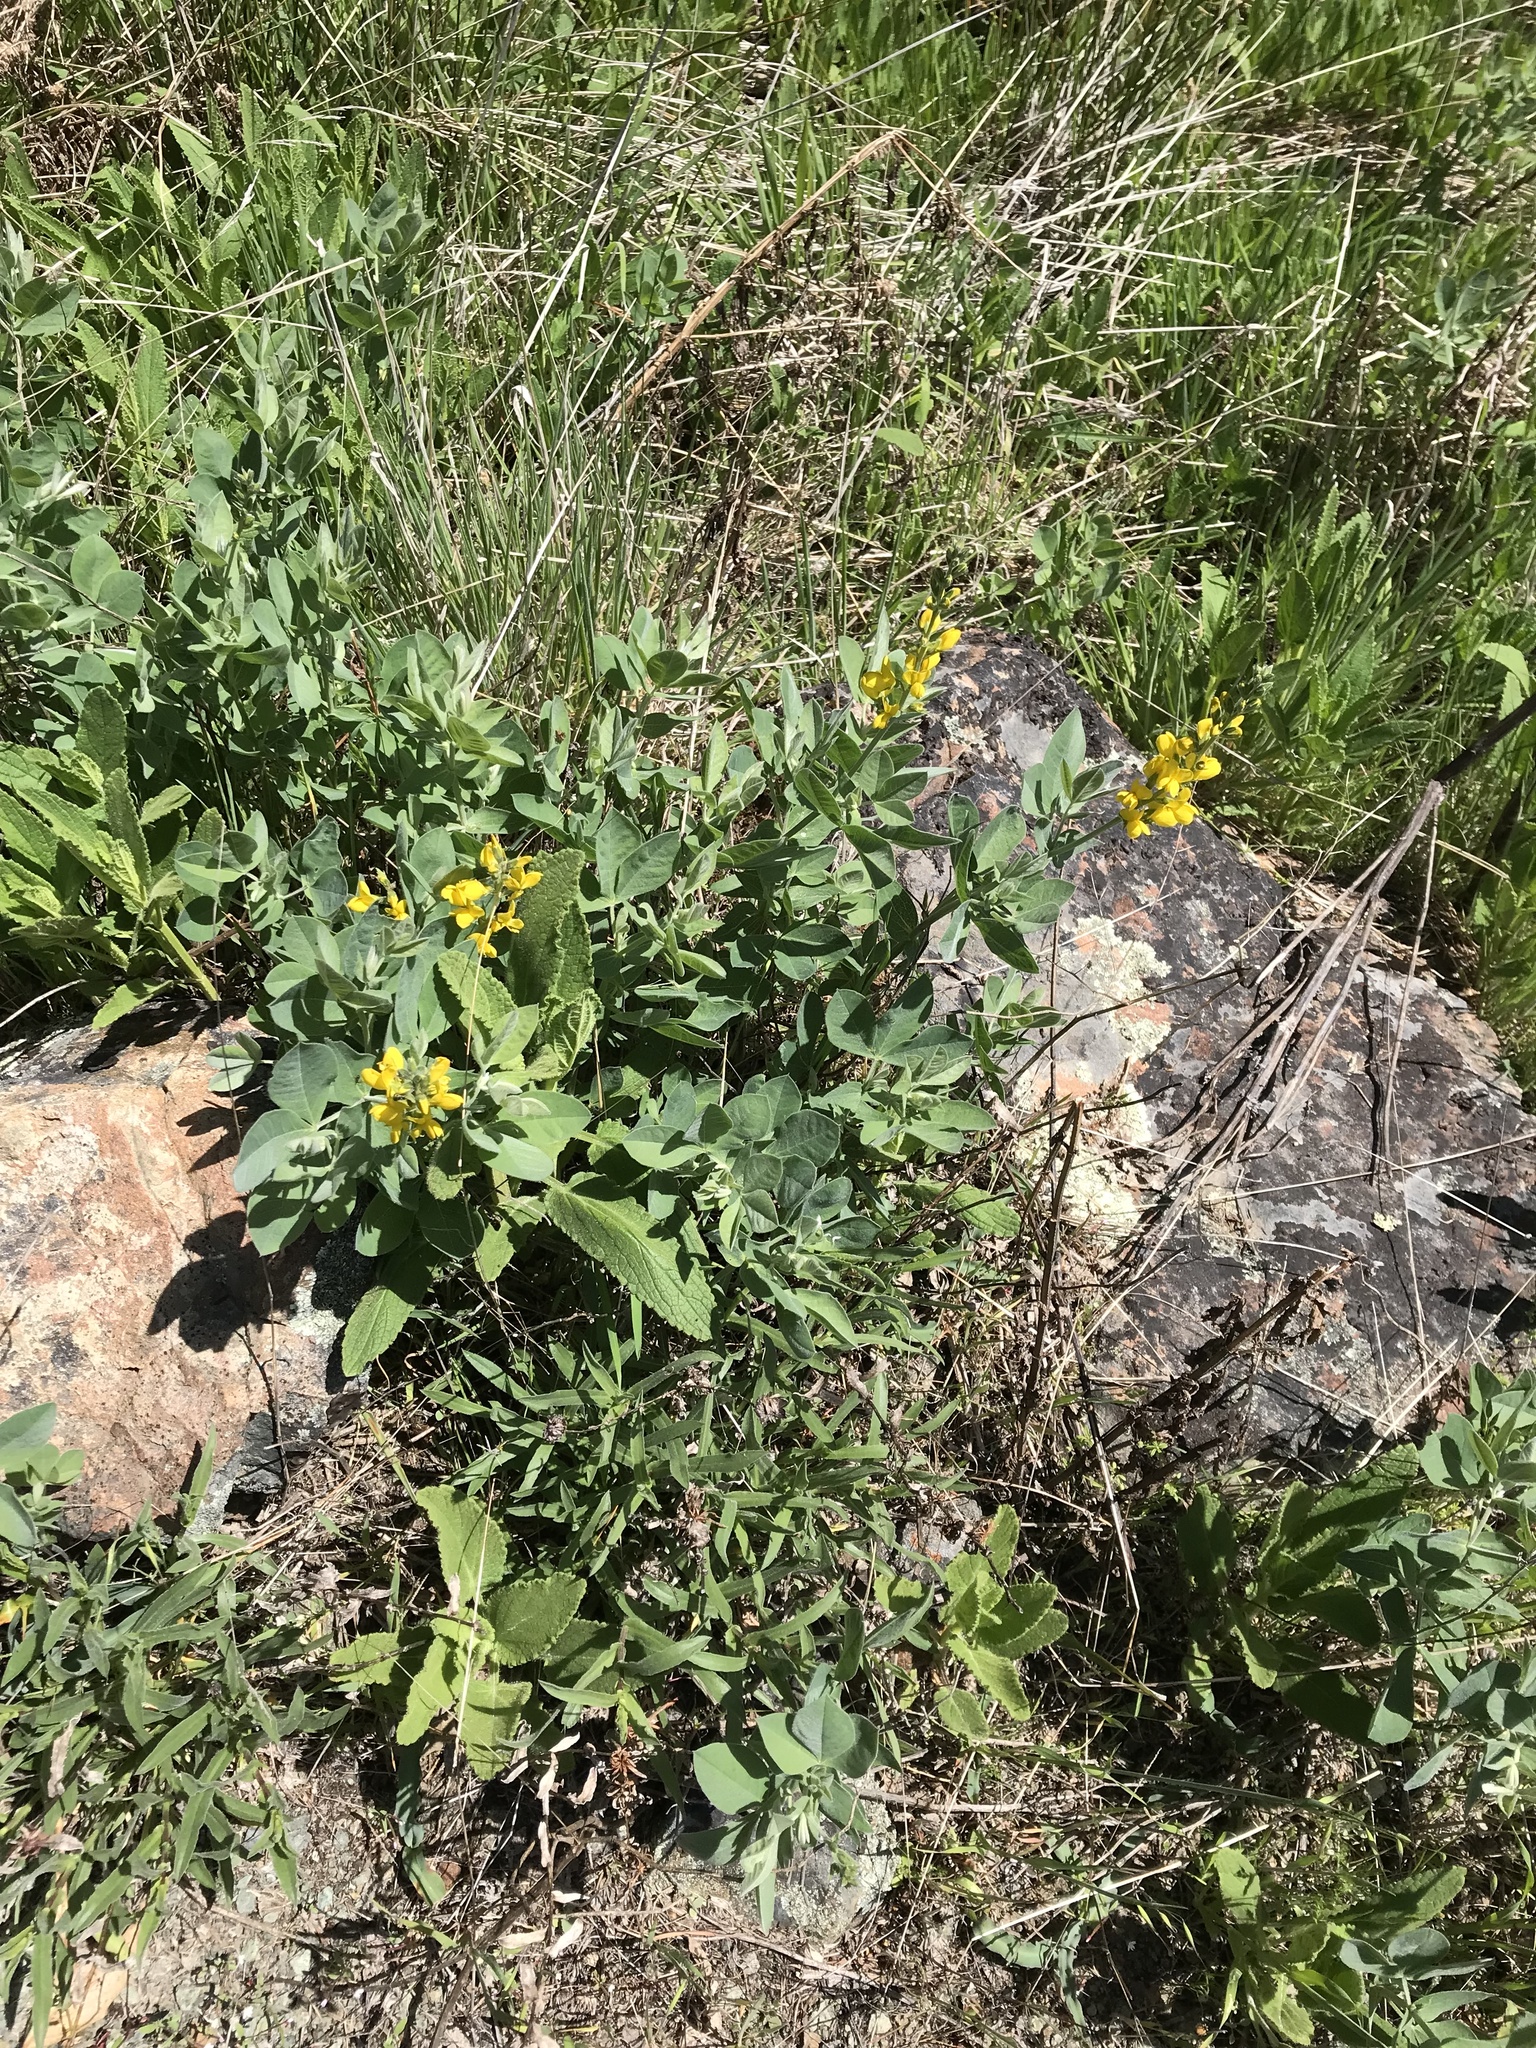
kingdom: Plantae
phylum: Tracheophyta
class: Magnoliopsida
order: Fabales
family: Fabaceae
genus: Thermopsis
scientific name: Thermopsis californica
